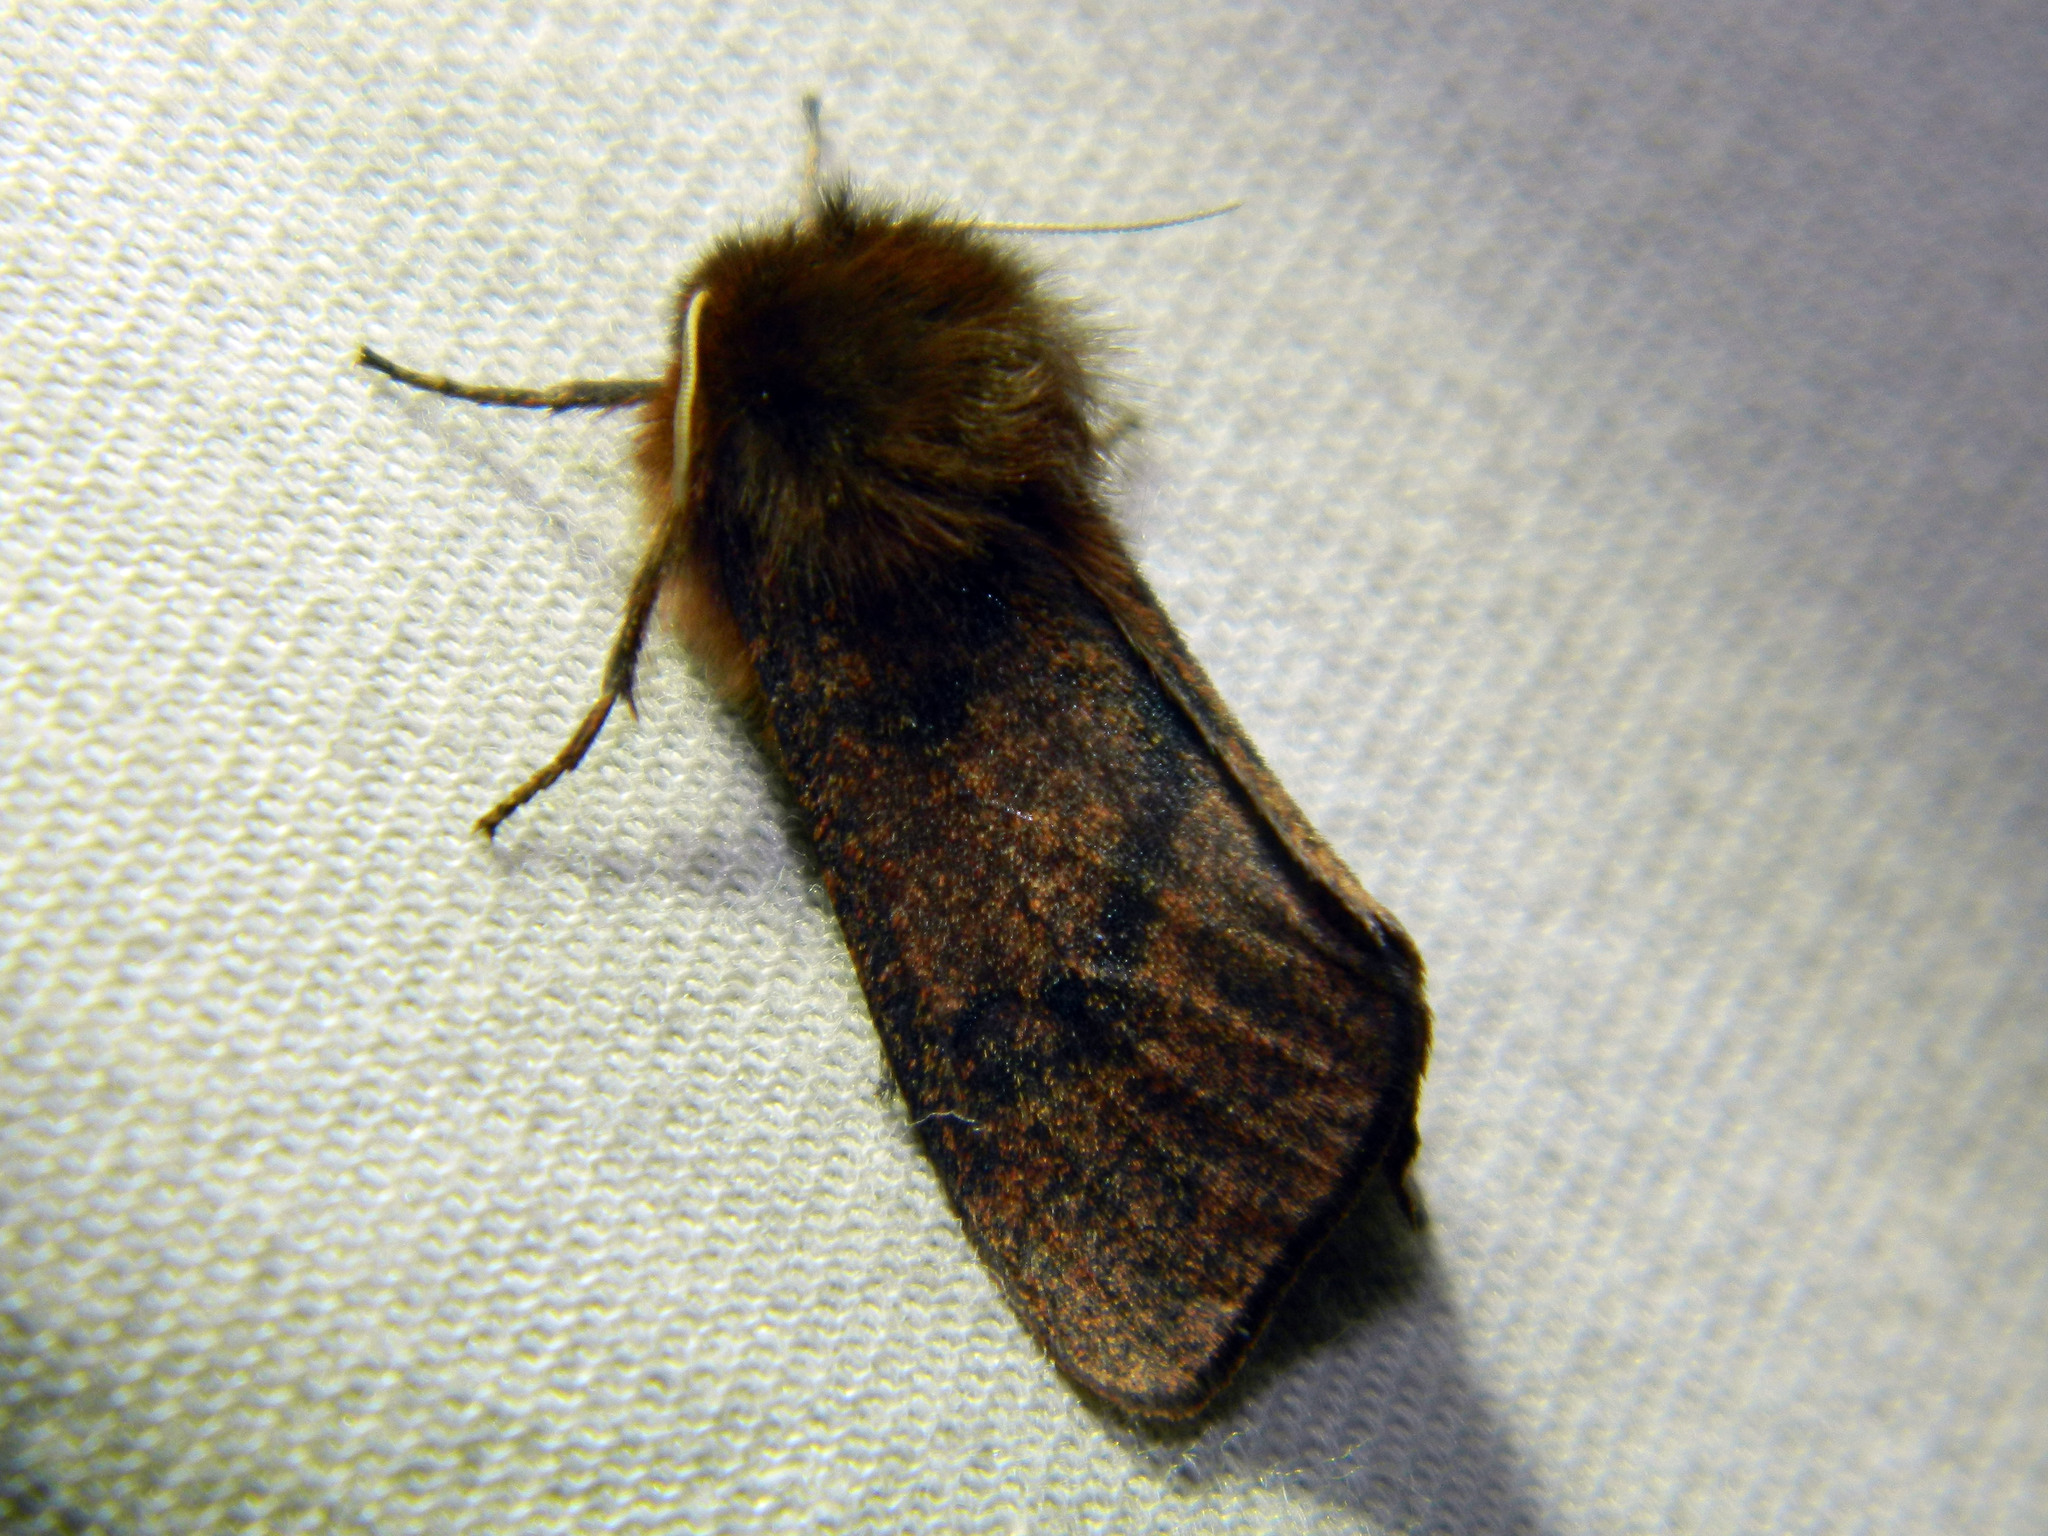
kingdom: Animalia
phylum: Arthropoda
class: Insecta
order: Lepidoptera
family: Erebidae
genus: Phragmatobia
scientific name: Phragmatobia assimilans
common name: Large ruby tiger moth
